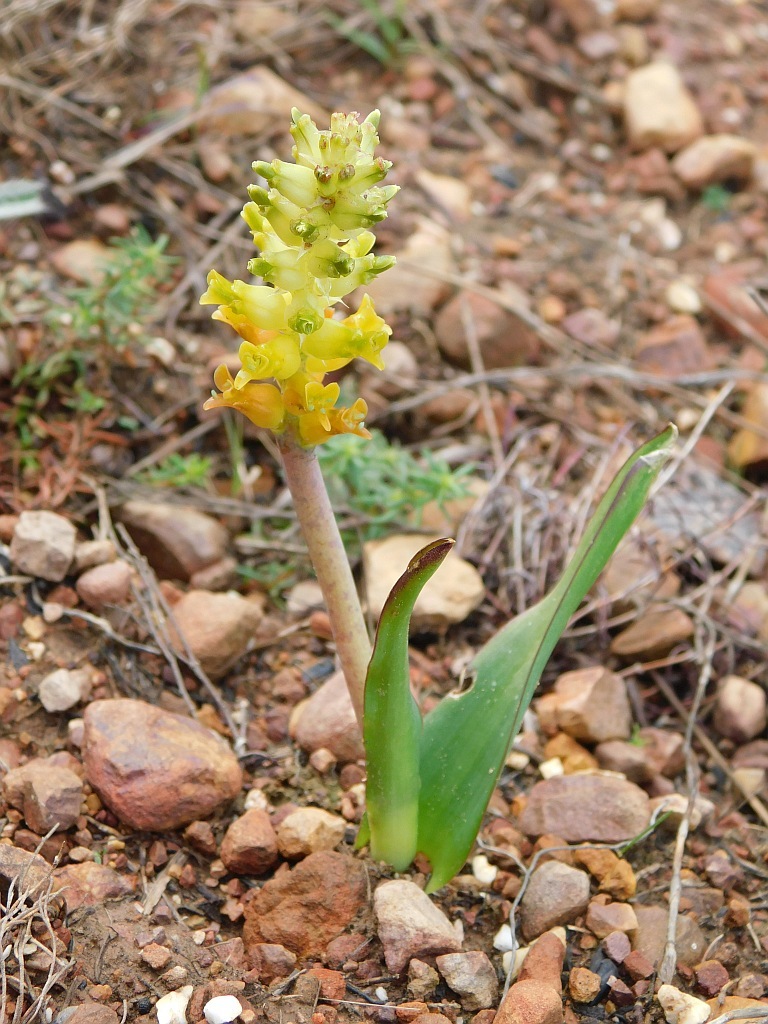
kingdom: Plantae
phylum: Tracheophyta
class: Liliopsida
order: Asparagales
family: Asparagaceae
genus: Lachenalia
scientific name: Lachenalia lutea
